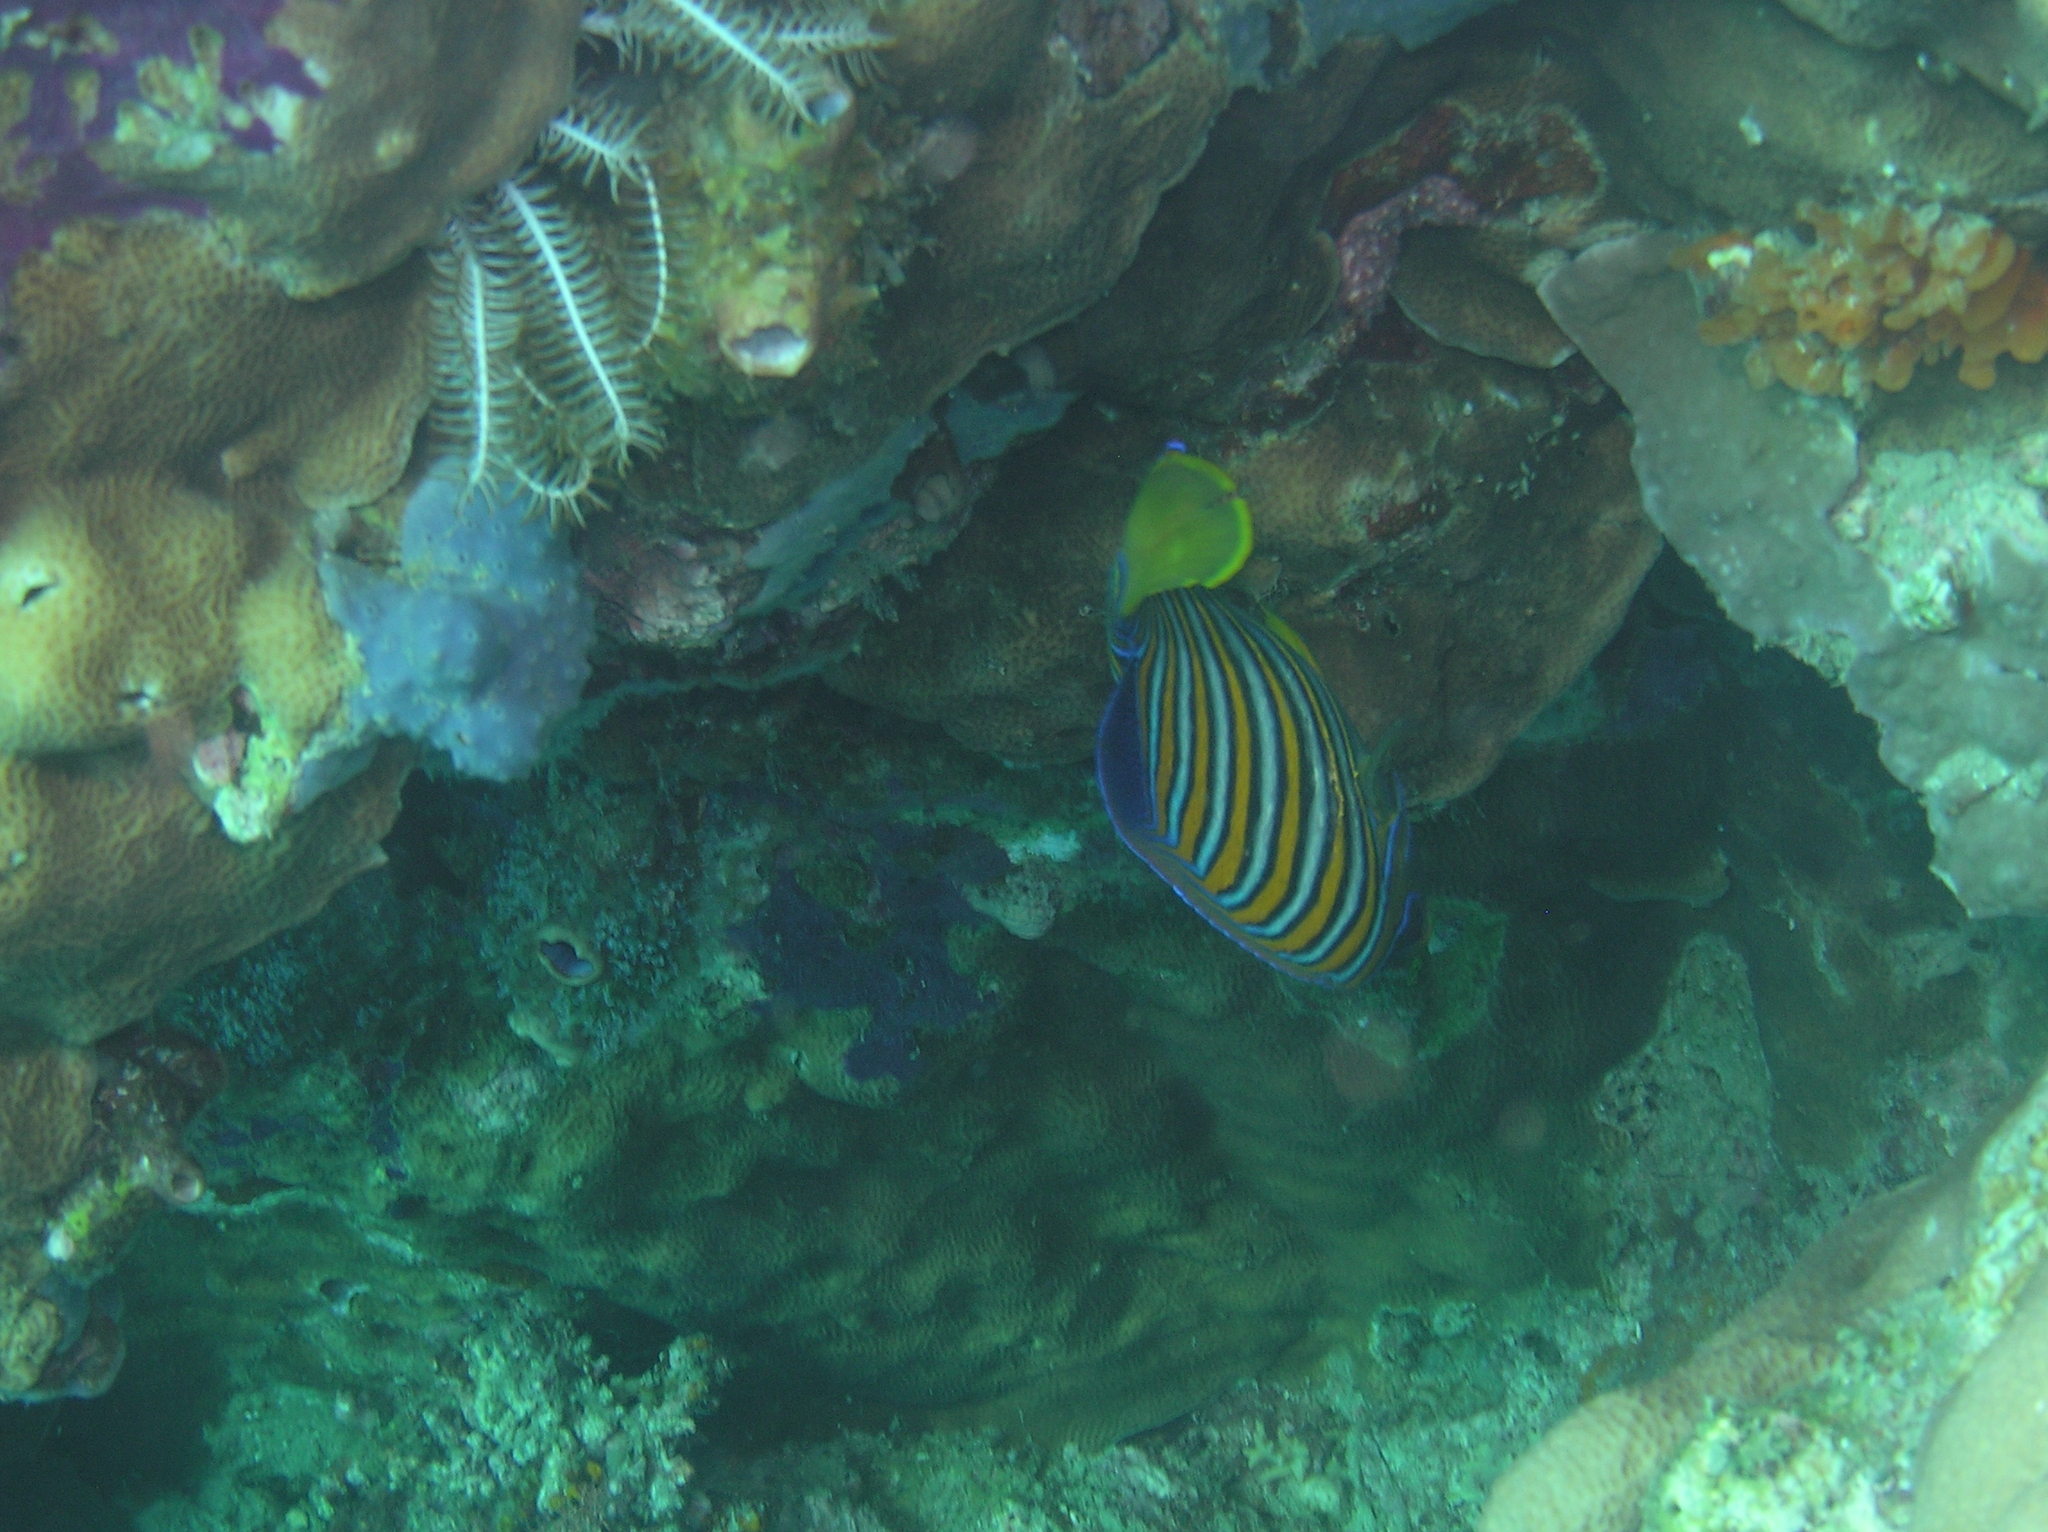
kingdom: Animalia
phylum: Chordata
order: Perciformes
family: Pomacanthidae
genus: Pygoplites
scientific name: Pygoplites diacanthus
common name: Regal angelfish
